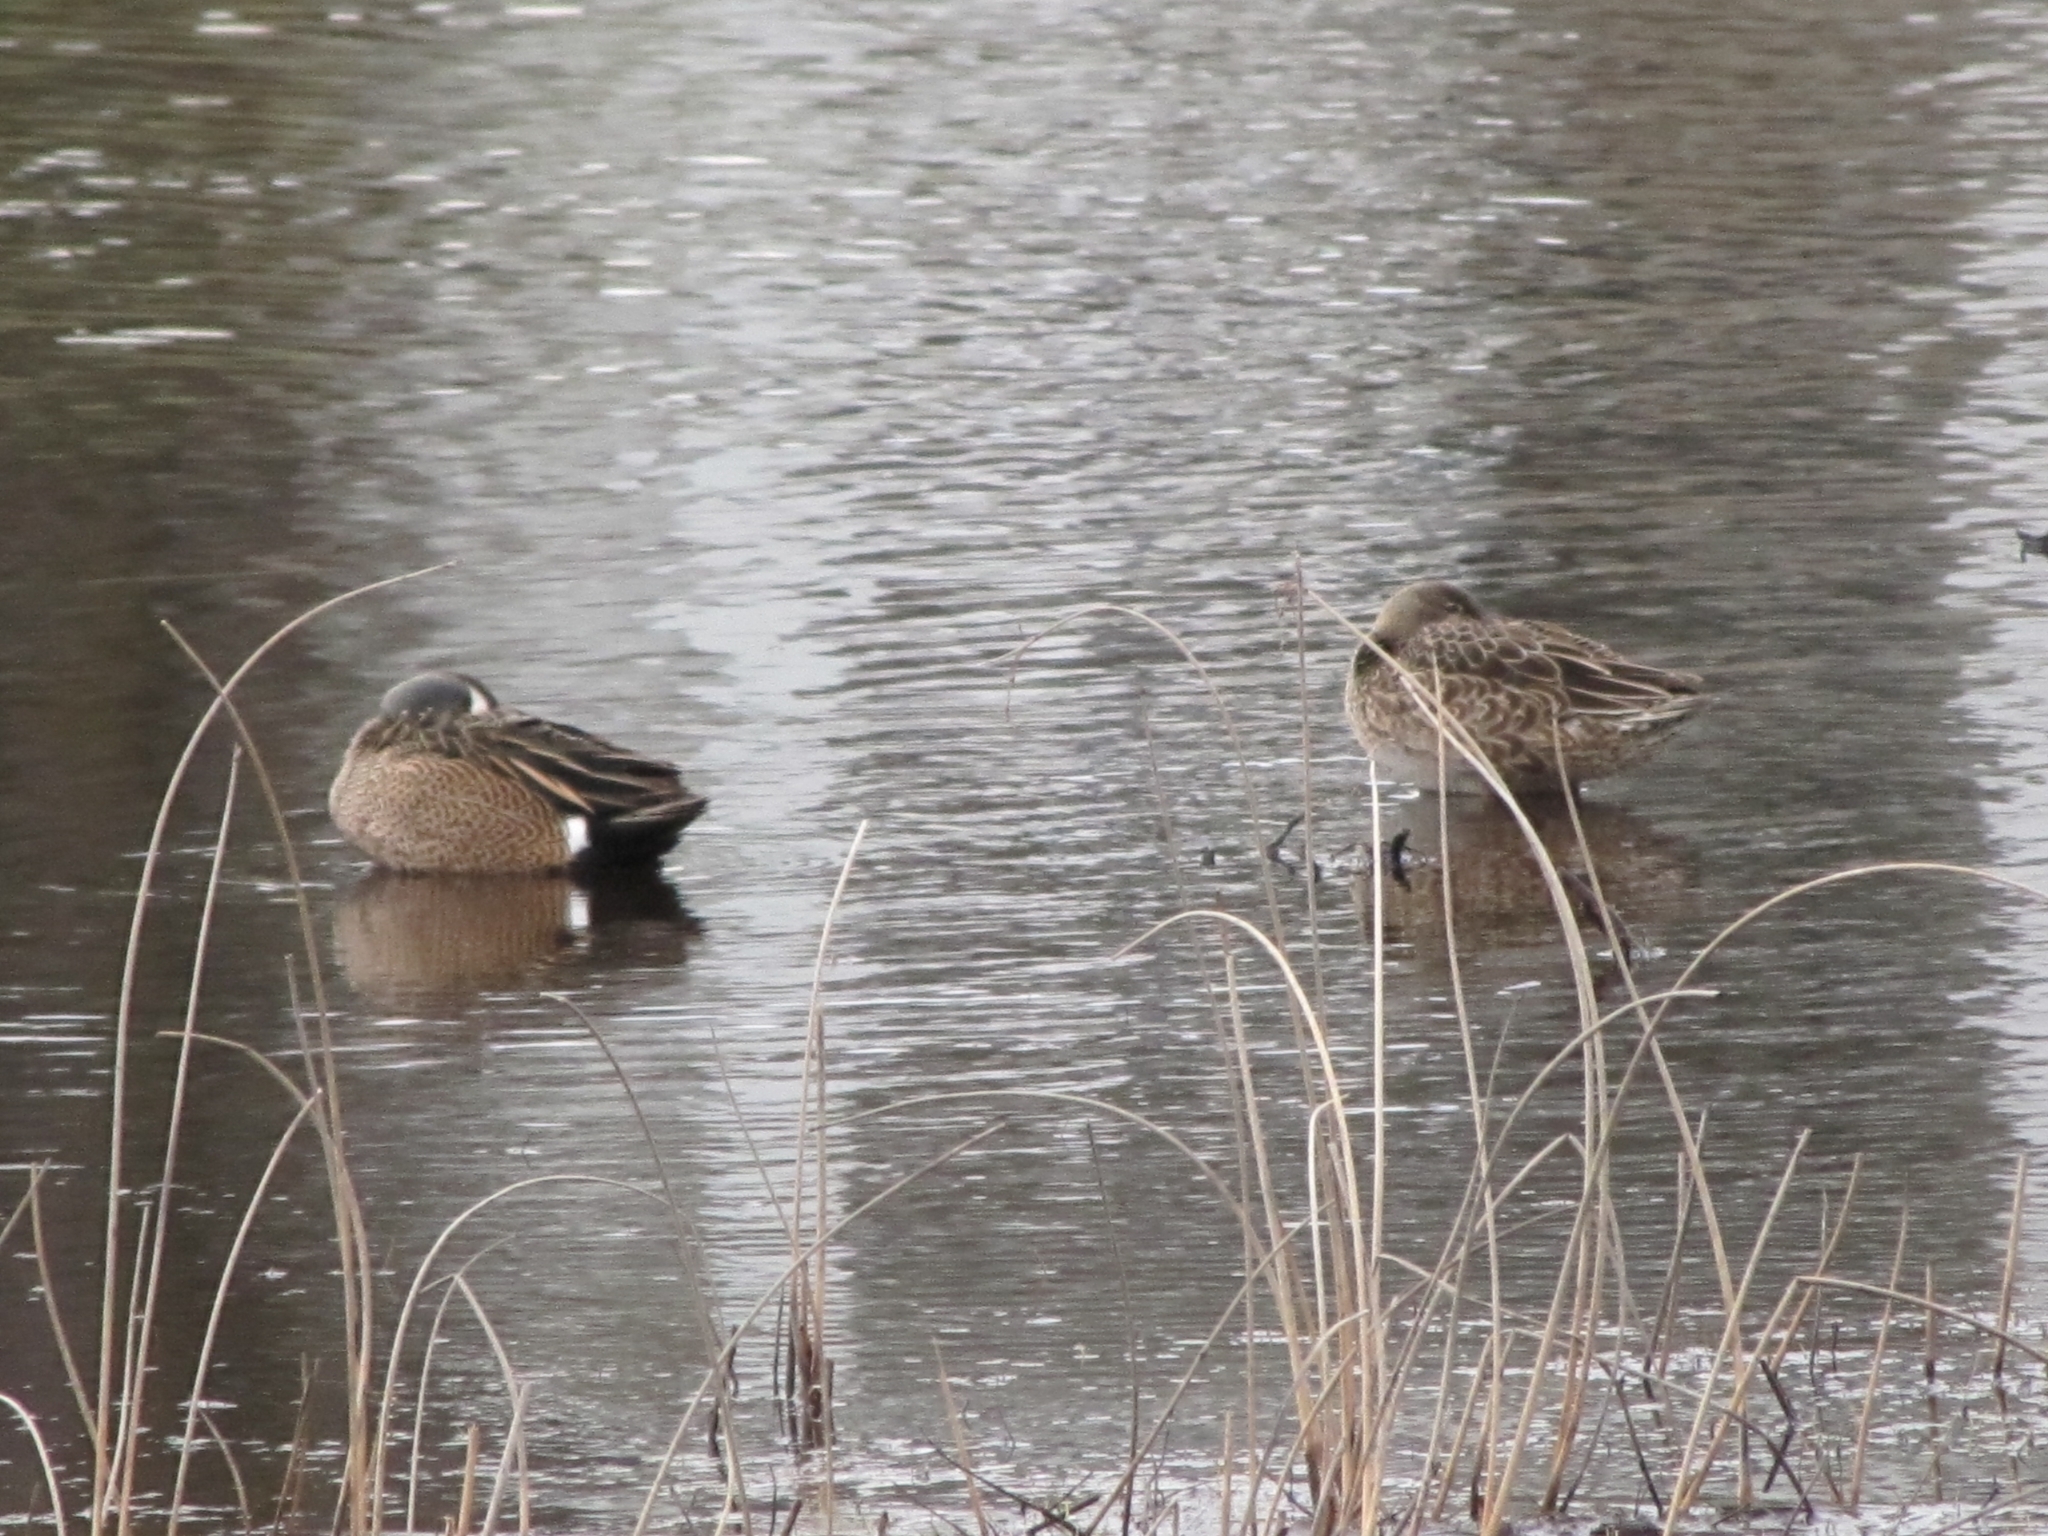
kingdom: Animalia
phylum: Chordata
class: Aves
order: Anseriformes
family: Anatidae
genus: Spatula
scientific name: Spatula discors
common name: Blue-winged teal
